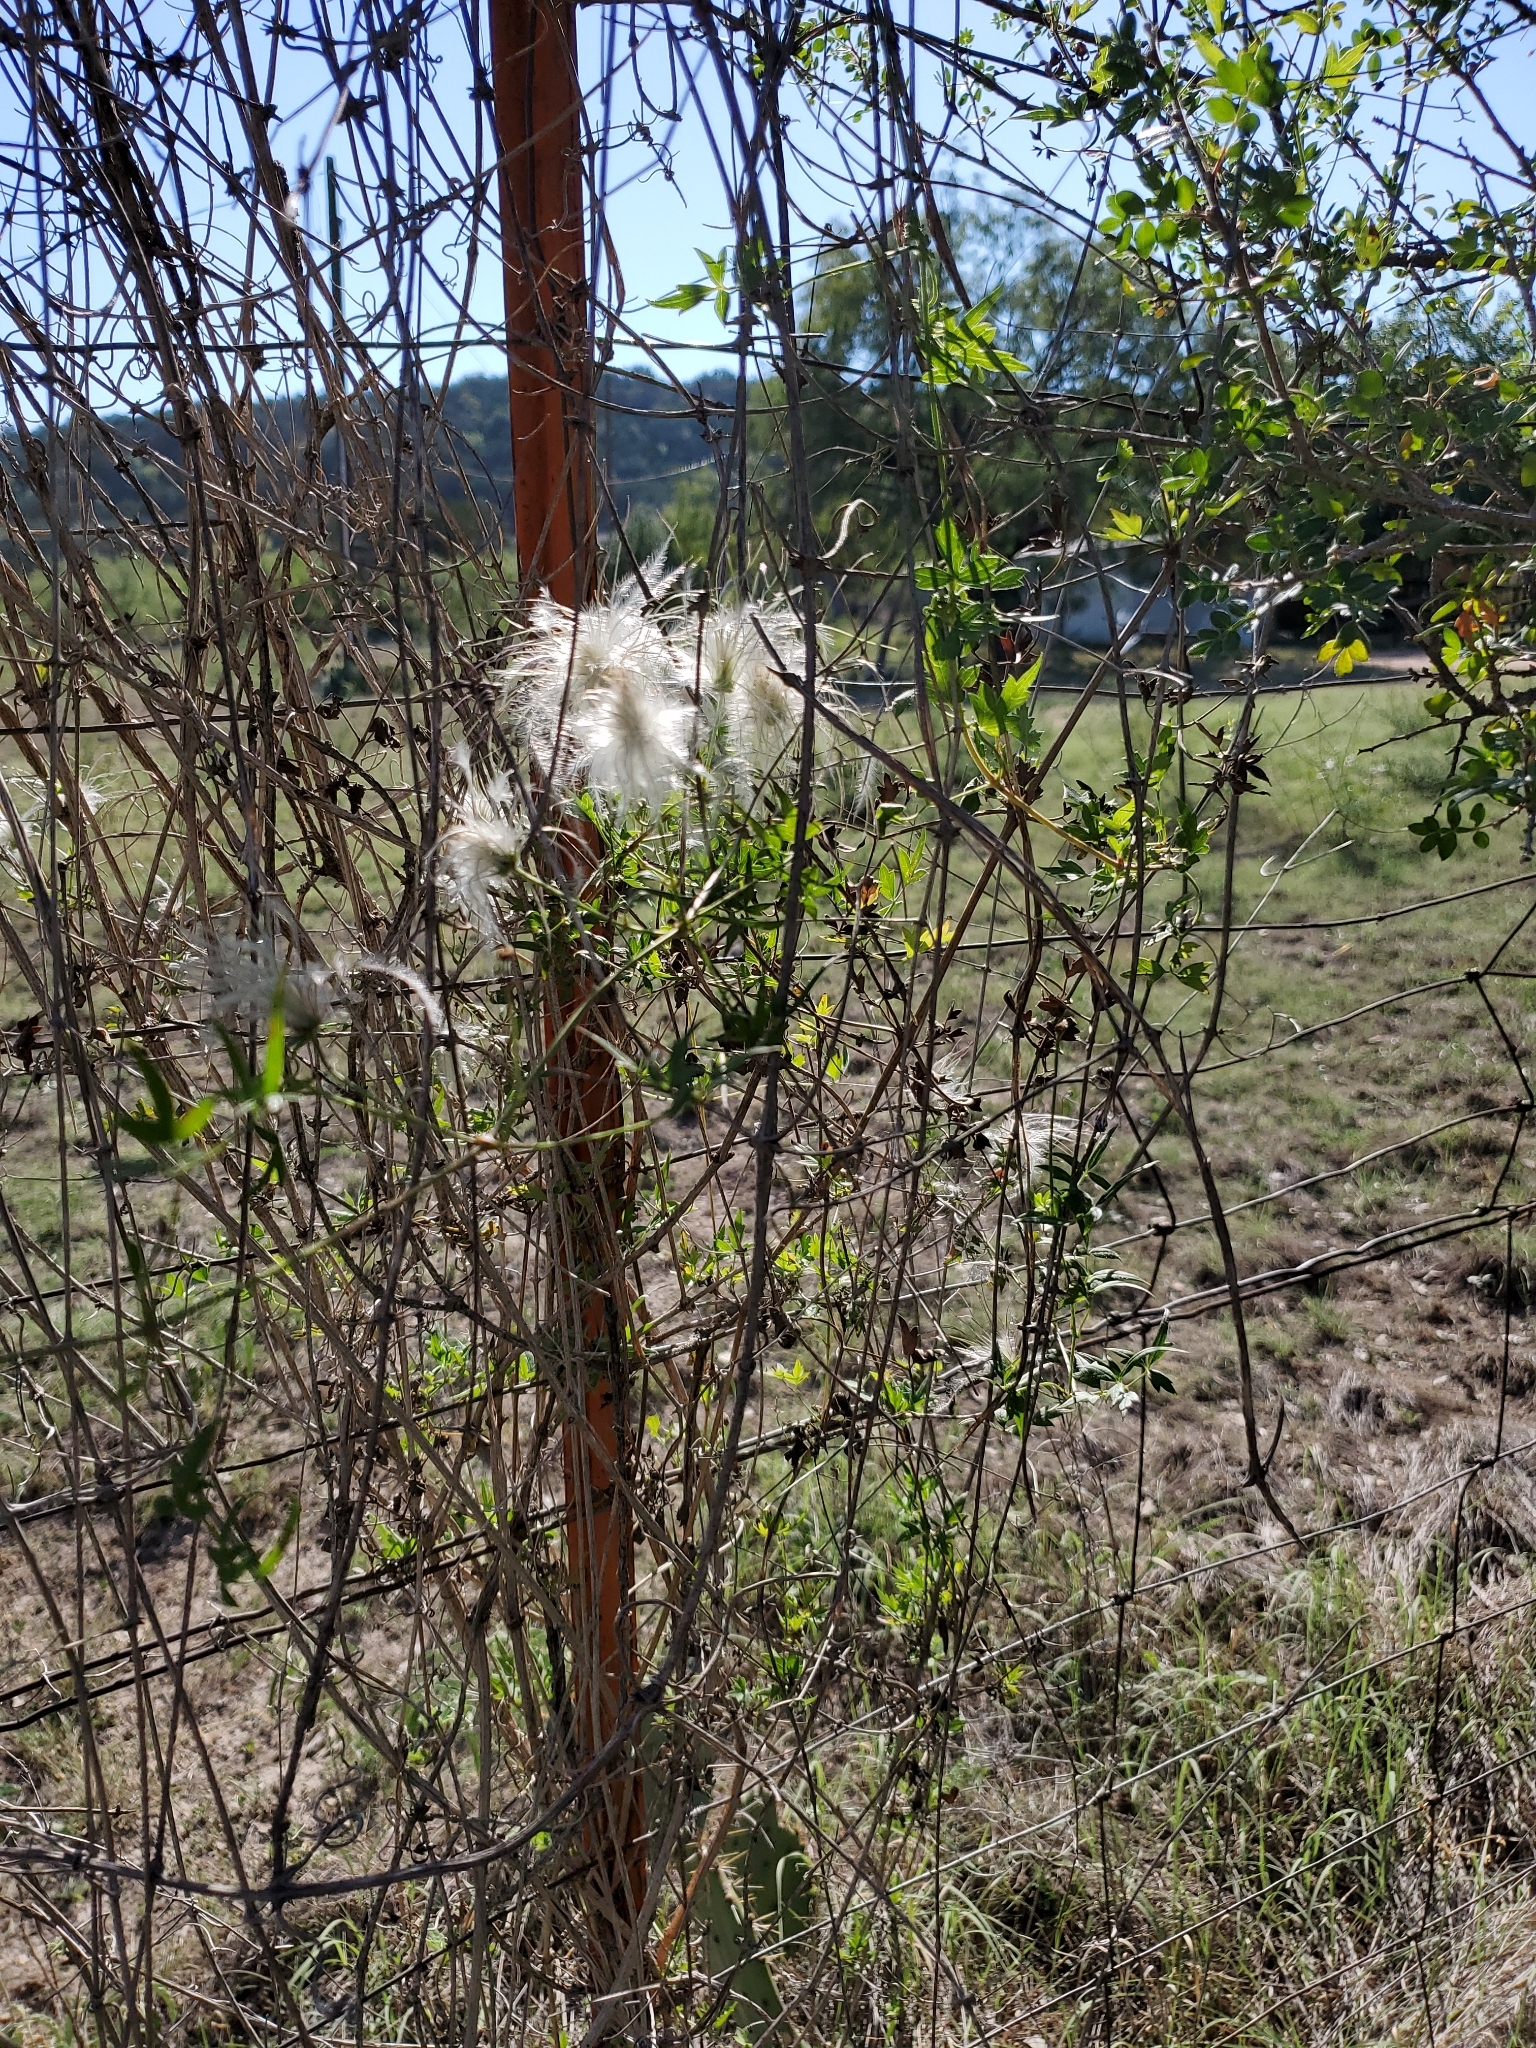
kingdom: Plantae
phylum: Tracheophyta
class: Magnoliopsida
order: Ranunculales
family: Ranunculaceae
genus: Clematis
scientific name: Clematis drummondii
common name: Texas virgin's bower
